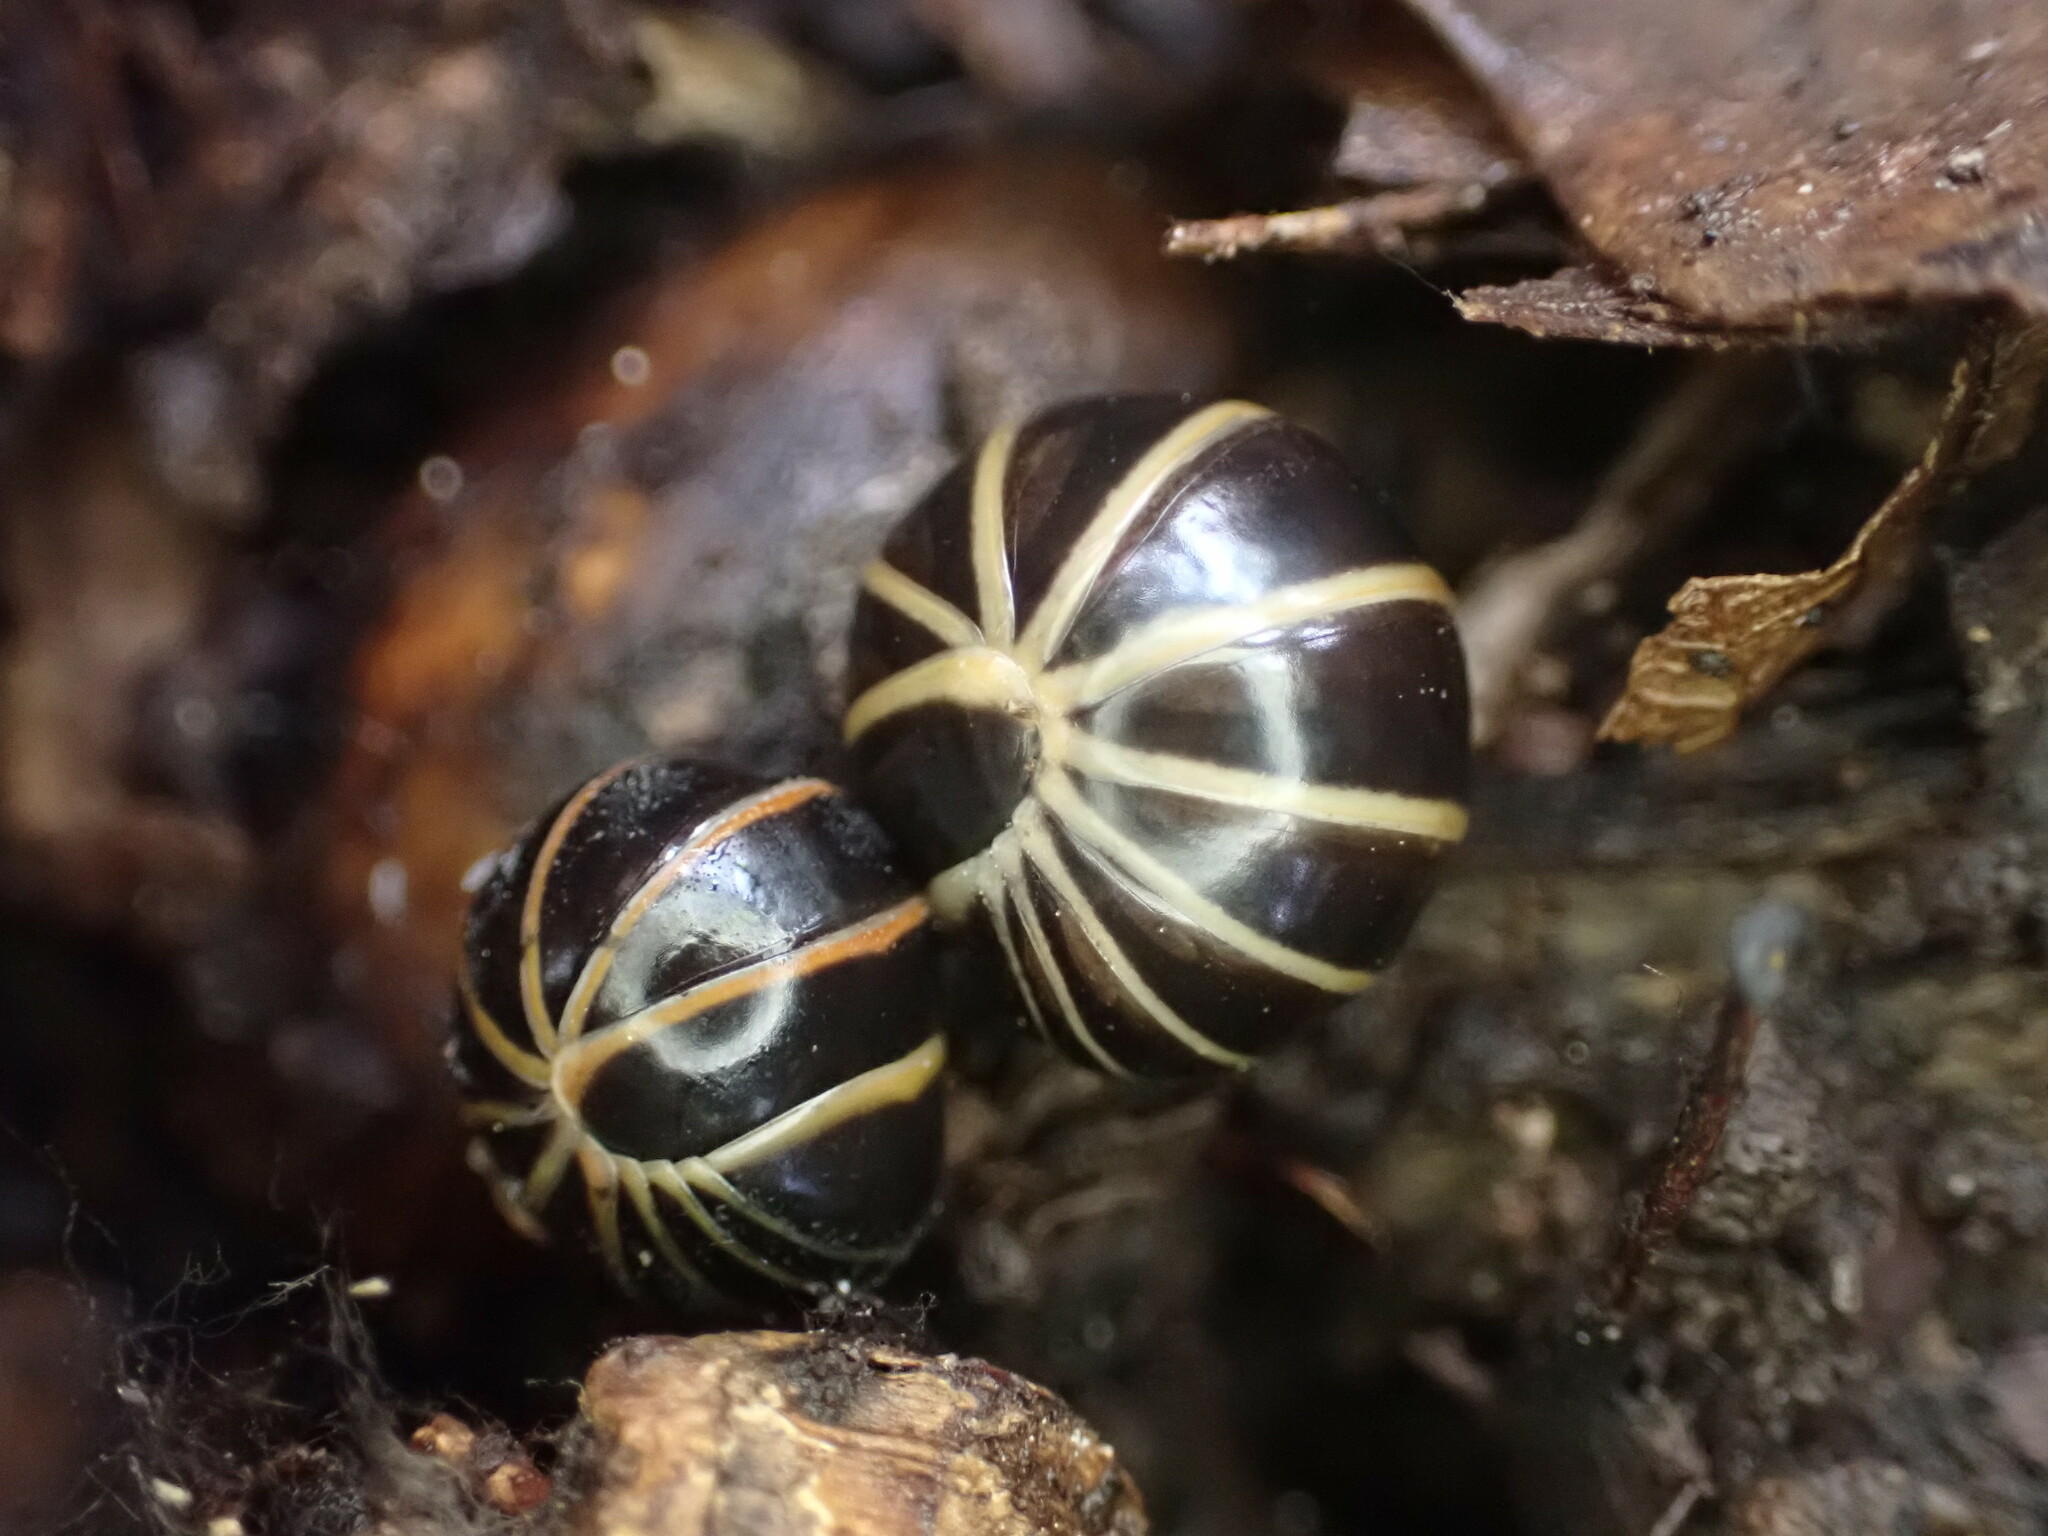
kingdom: Animalia
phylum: Arthropoda
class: Diplopoda
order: Glomerida
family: Glomeridae
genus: Glomeris
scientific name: Glomeris marginata
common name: Bordered pill millipede
